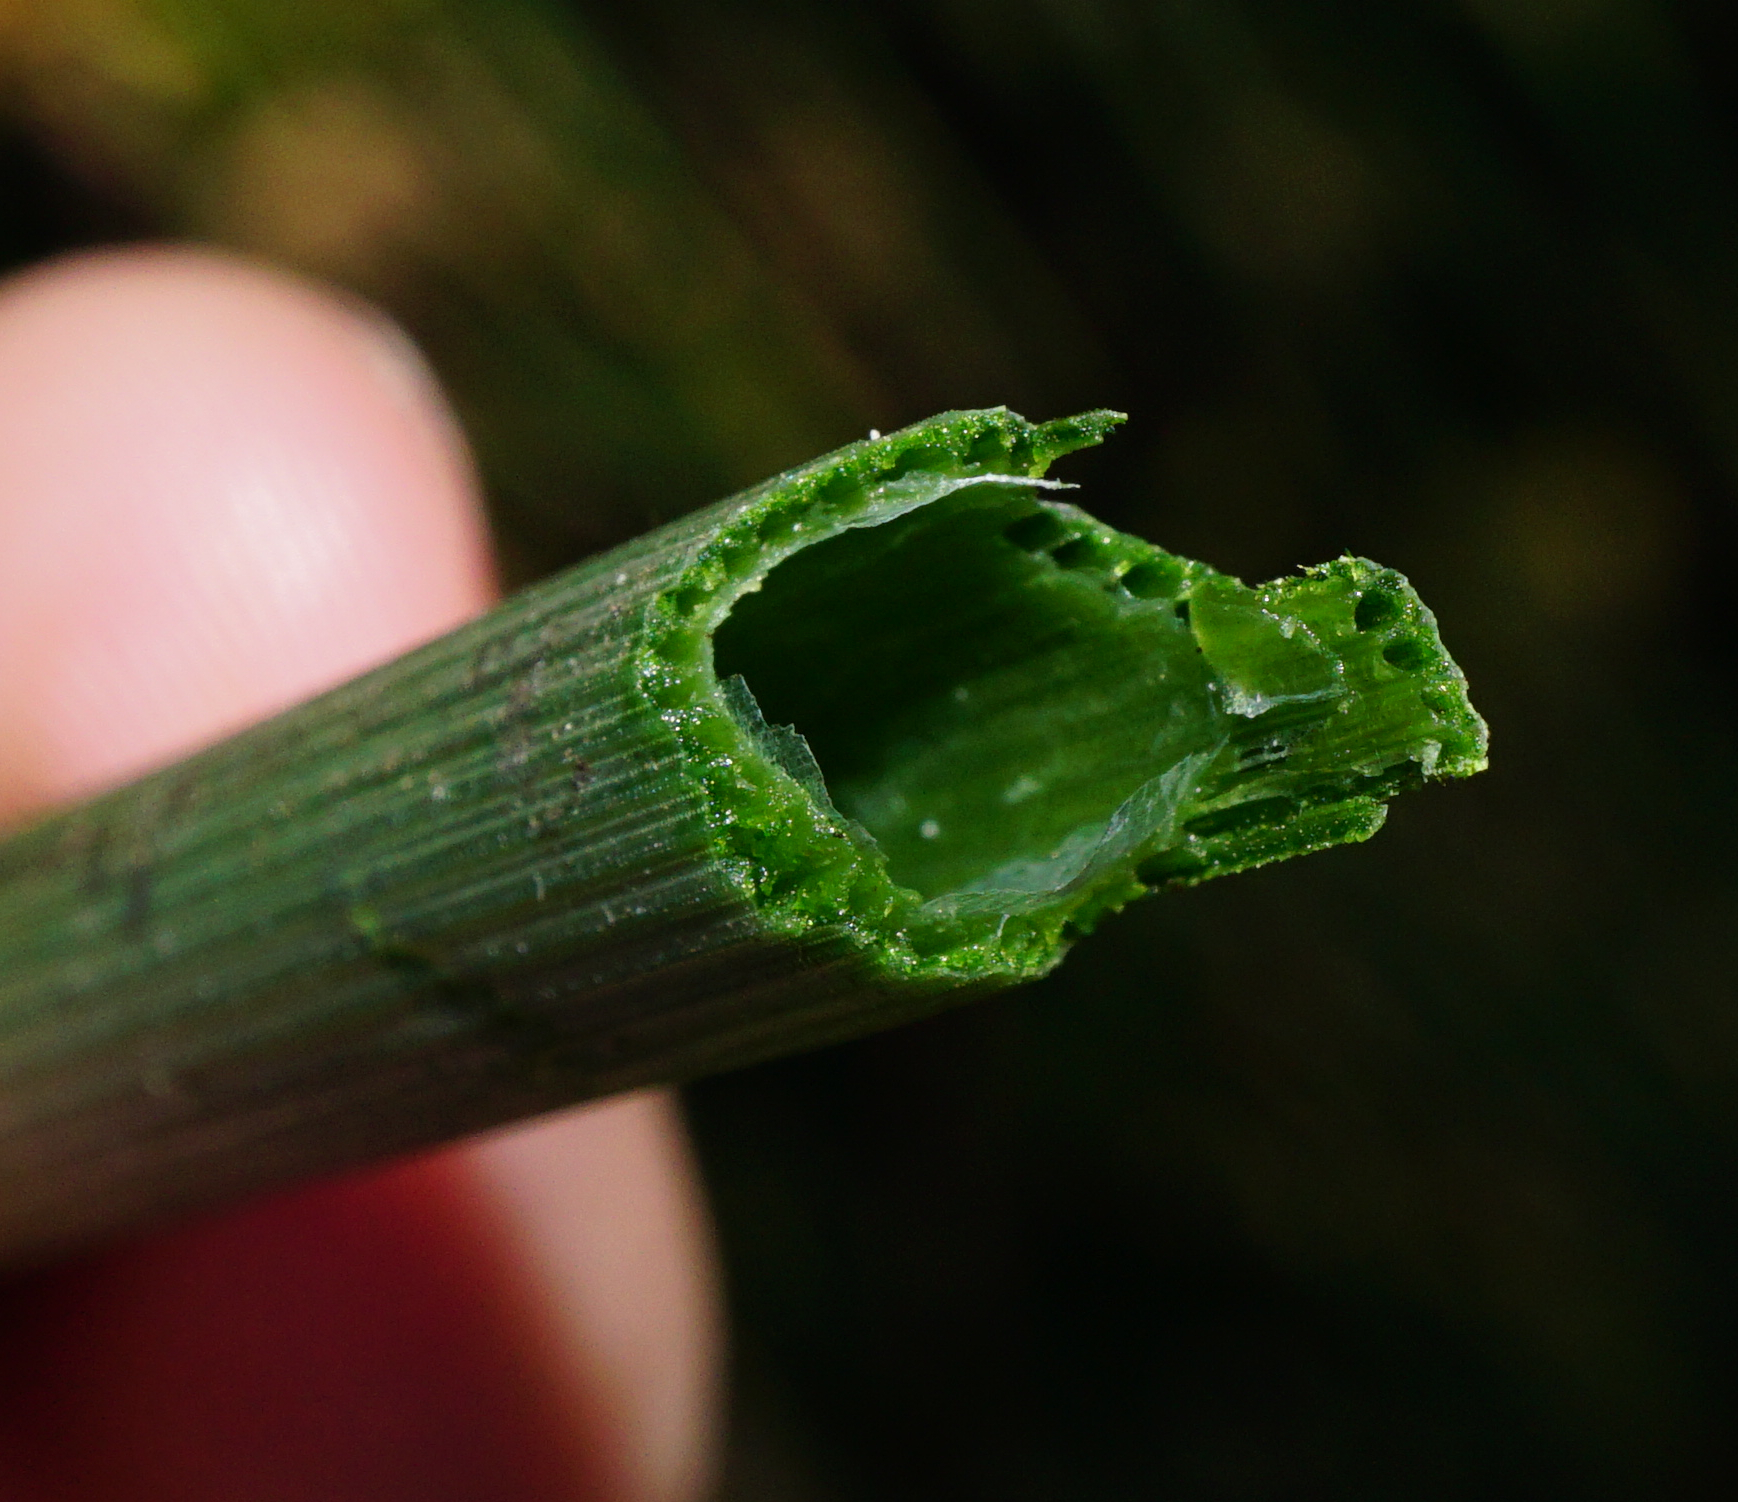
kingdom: Plantae
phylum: Tracheophyta
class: Polypodiopsida
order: Equisetales
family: Equisetaceae
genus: Equisetum
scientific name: Equisetum hyemale
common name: Rough horsetail
